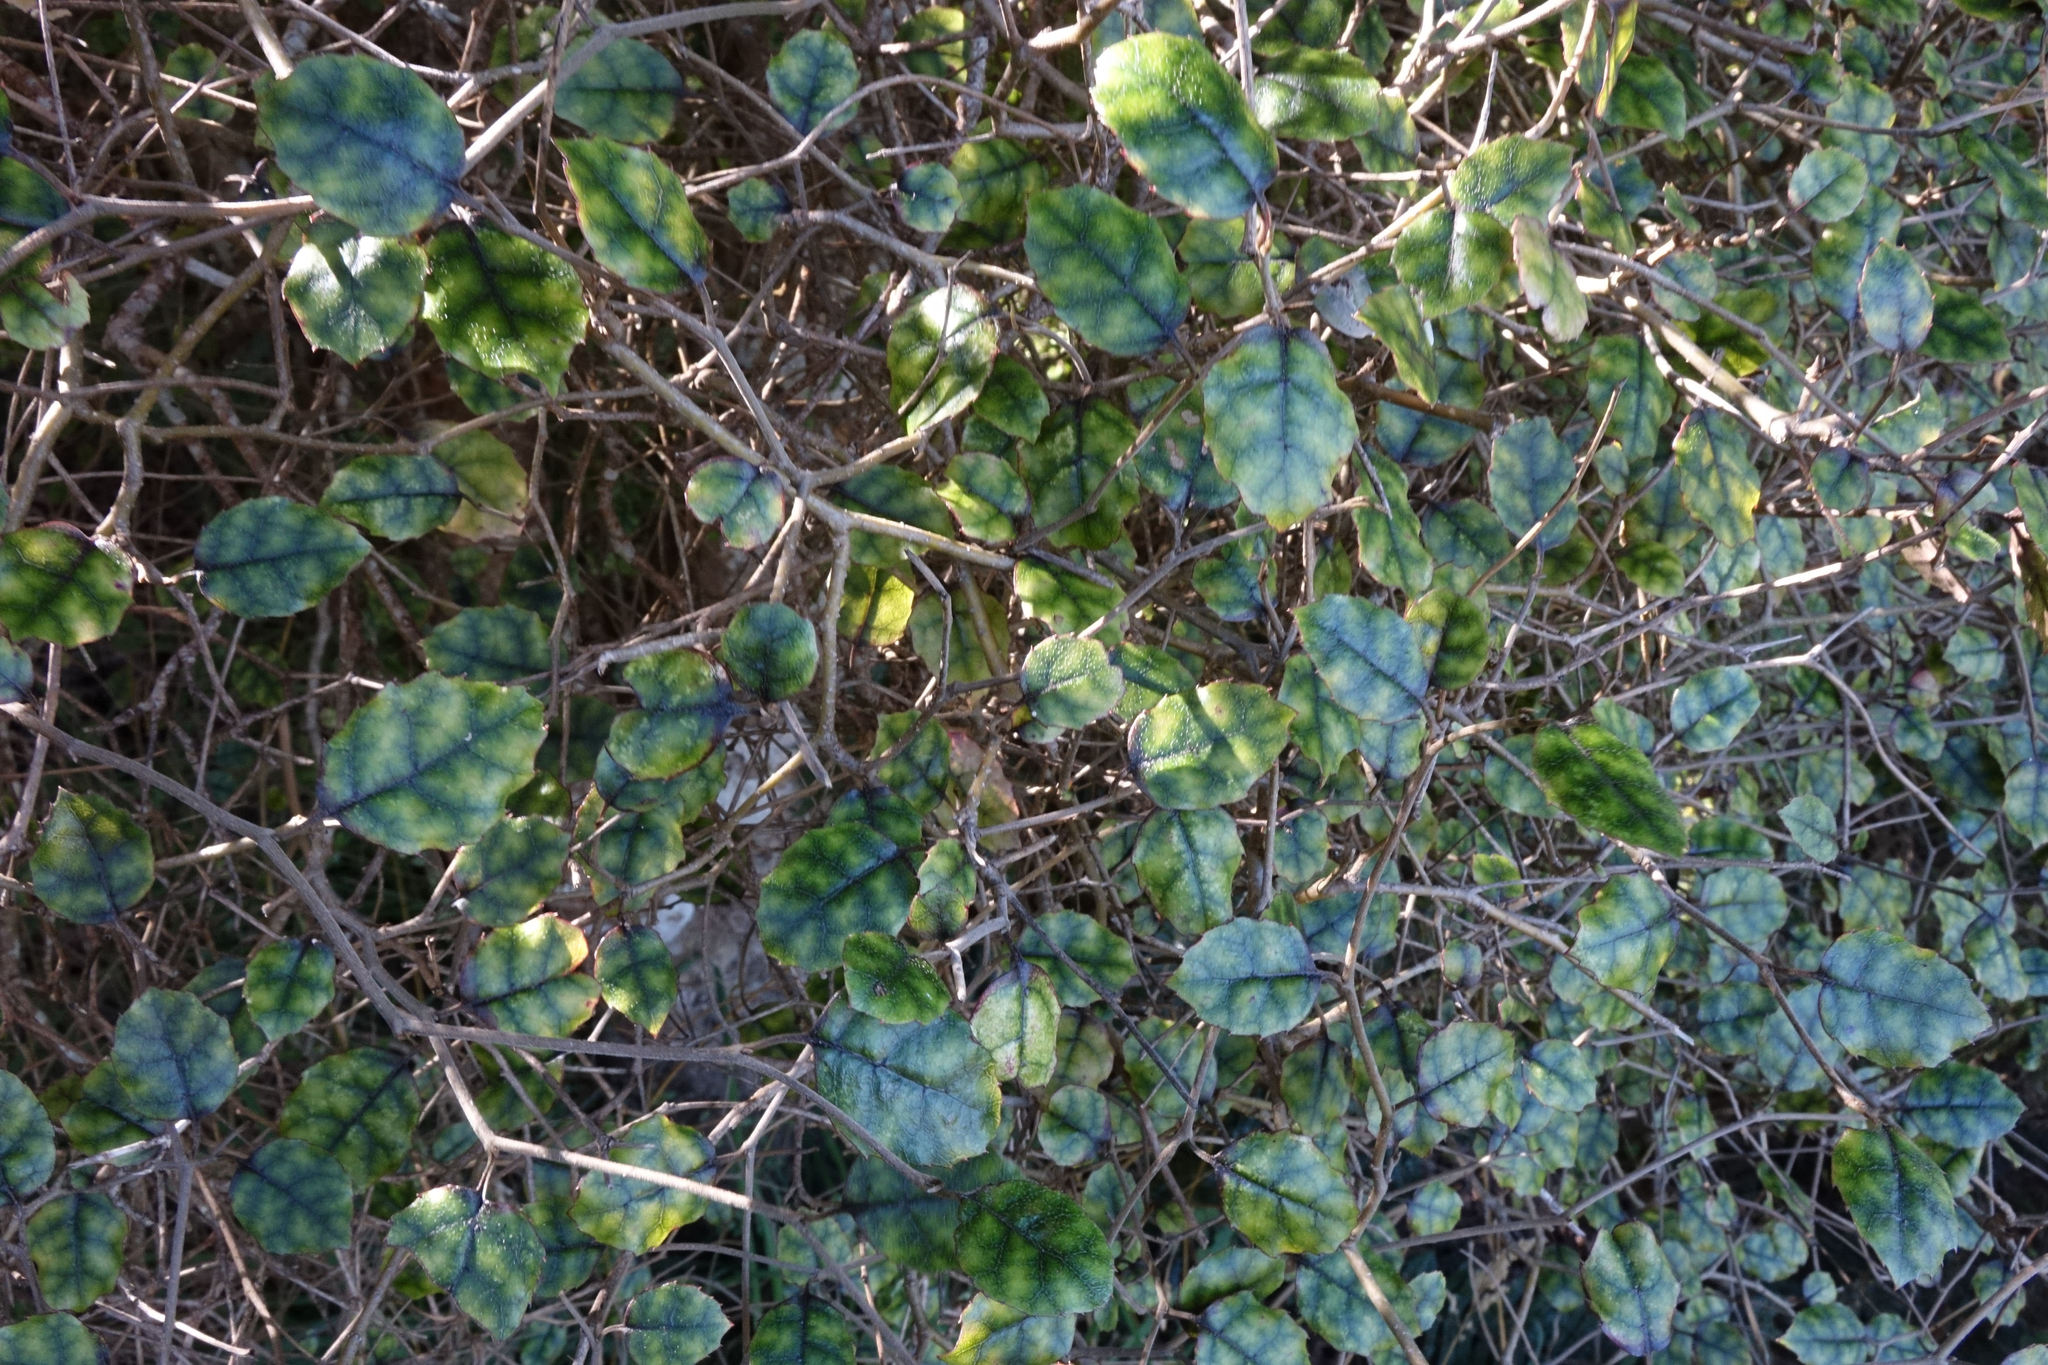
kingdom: Plantae
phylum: Tracheophyta
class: Magnoliopsida
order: Asterales
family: Rousseaceae
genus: Carpodetus
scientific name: Carpodetus serratus
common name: White mapau
